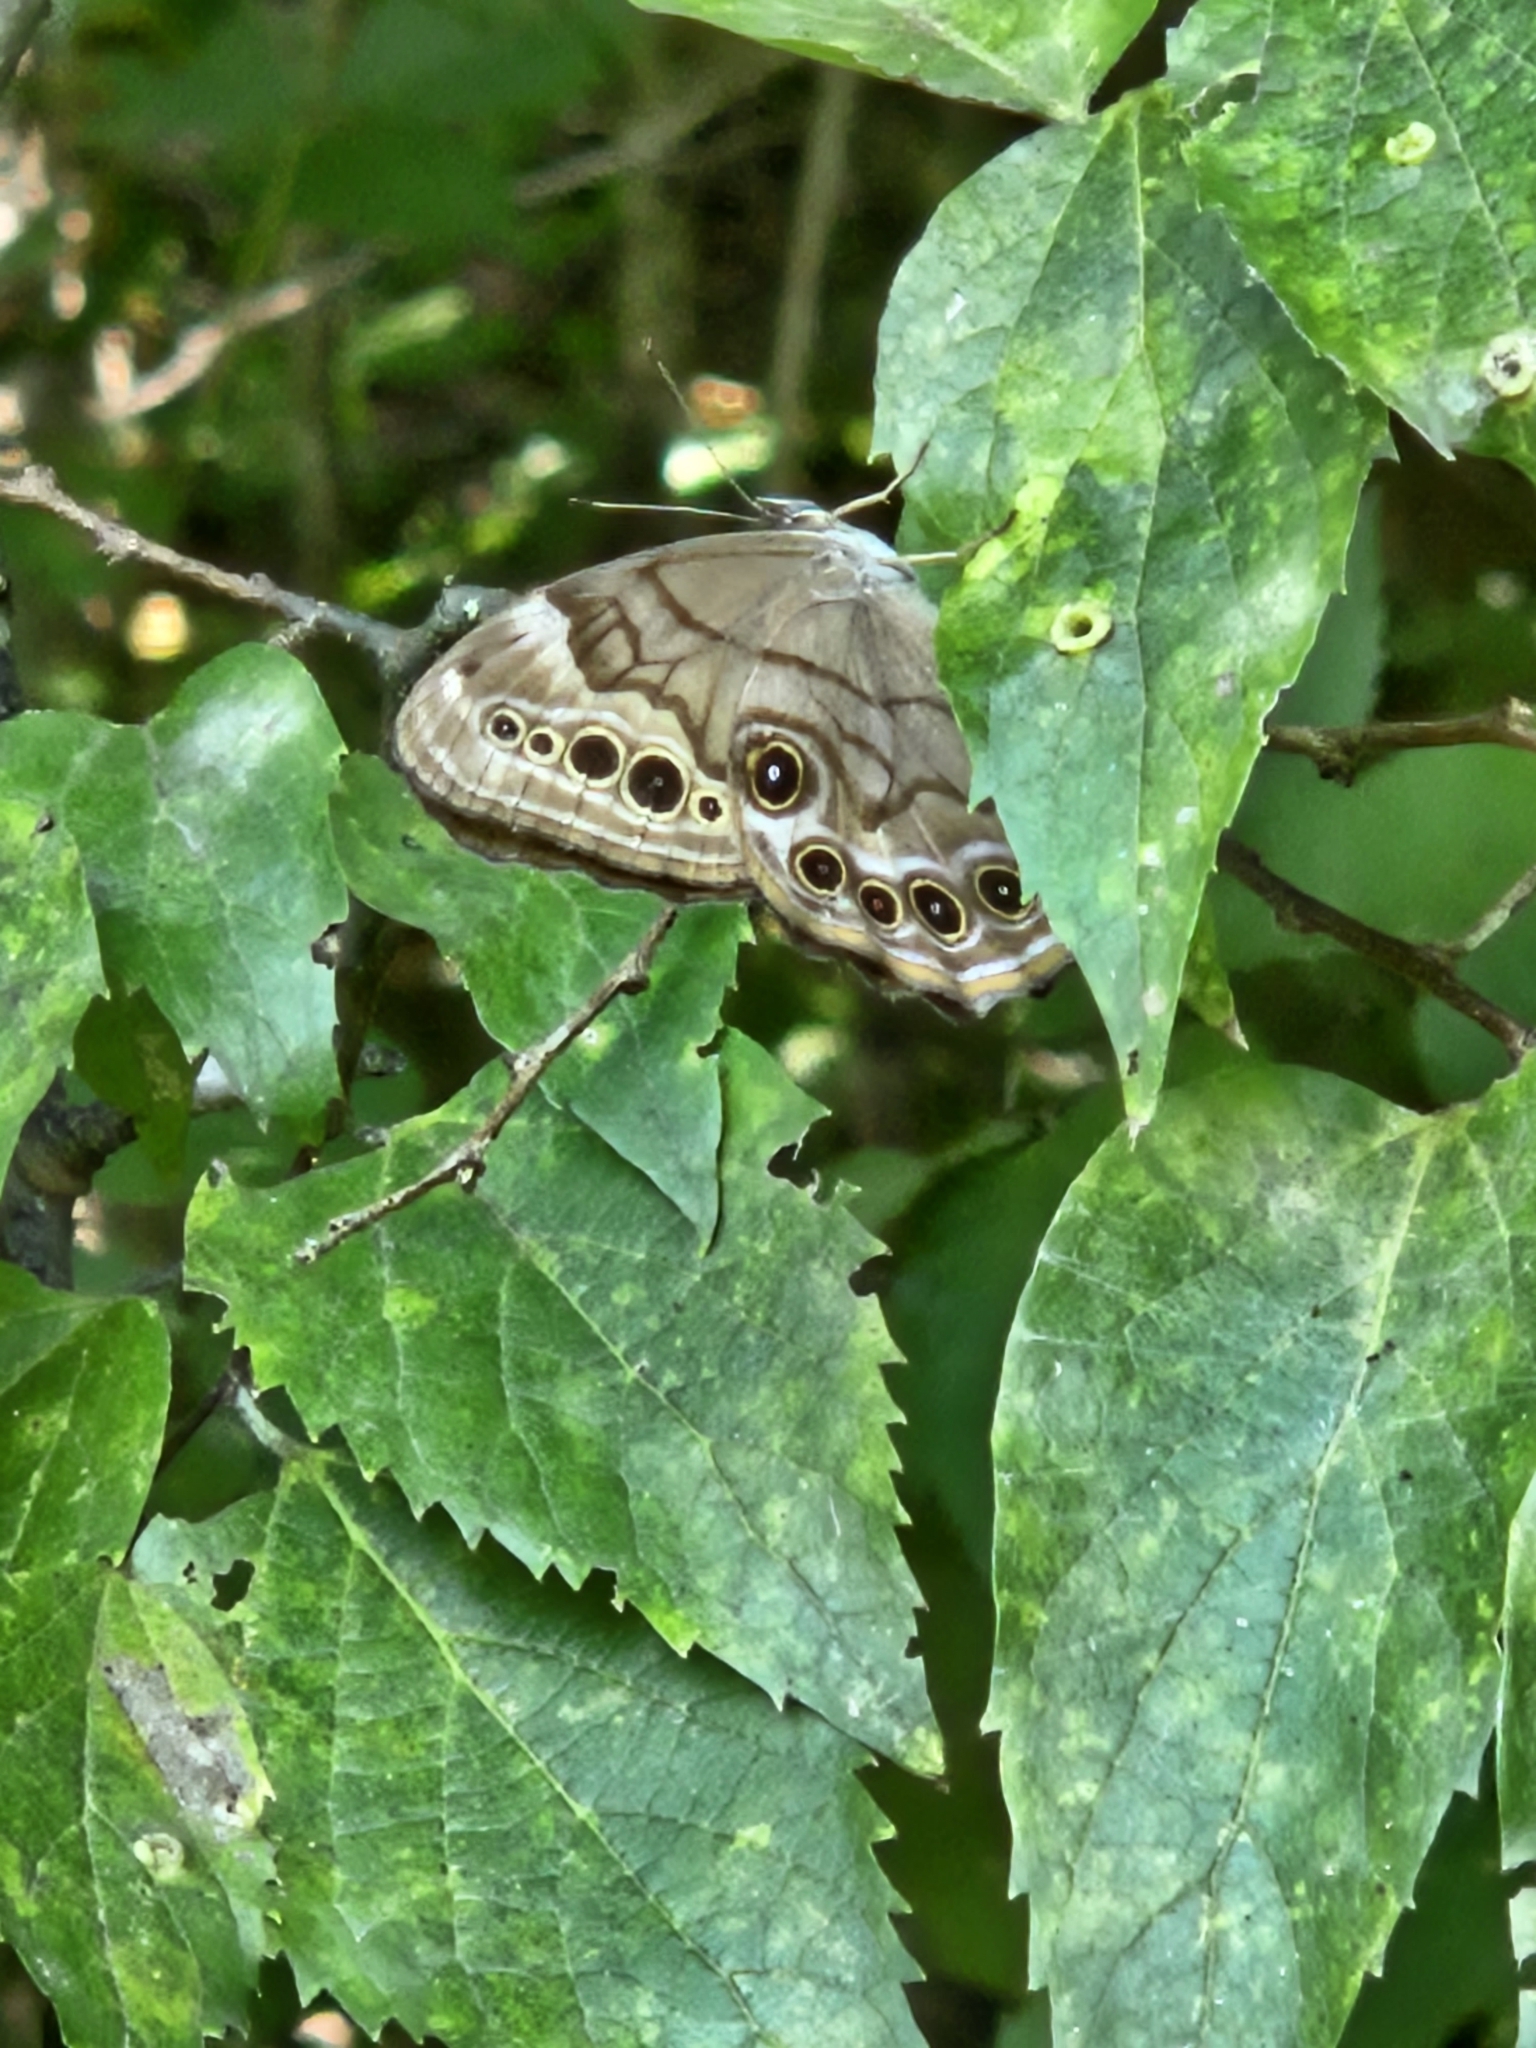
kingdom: Animalia
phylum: Arthropoda
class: Insecta
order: Lepidoptera
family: Nymphalidae
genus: Lethe
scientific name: Lethe anthedon
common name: Northern pearly-eye
